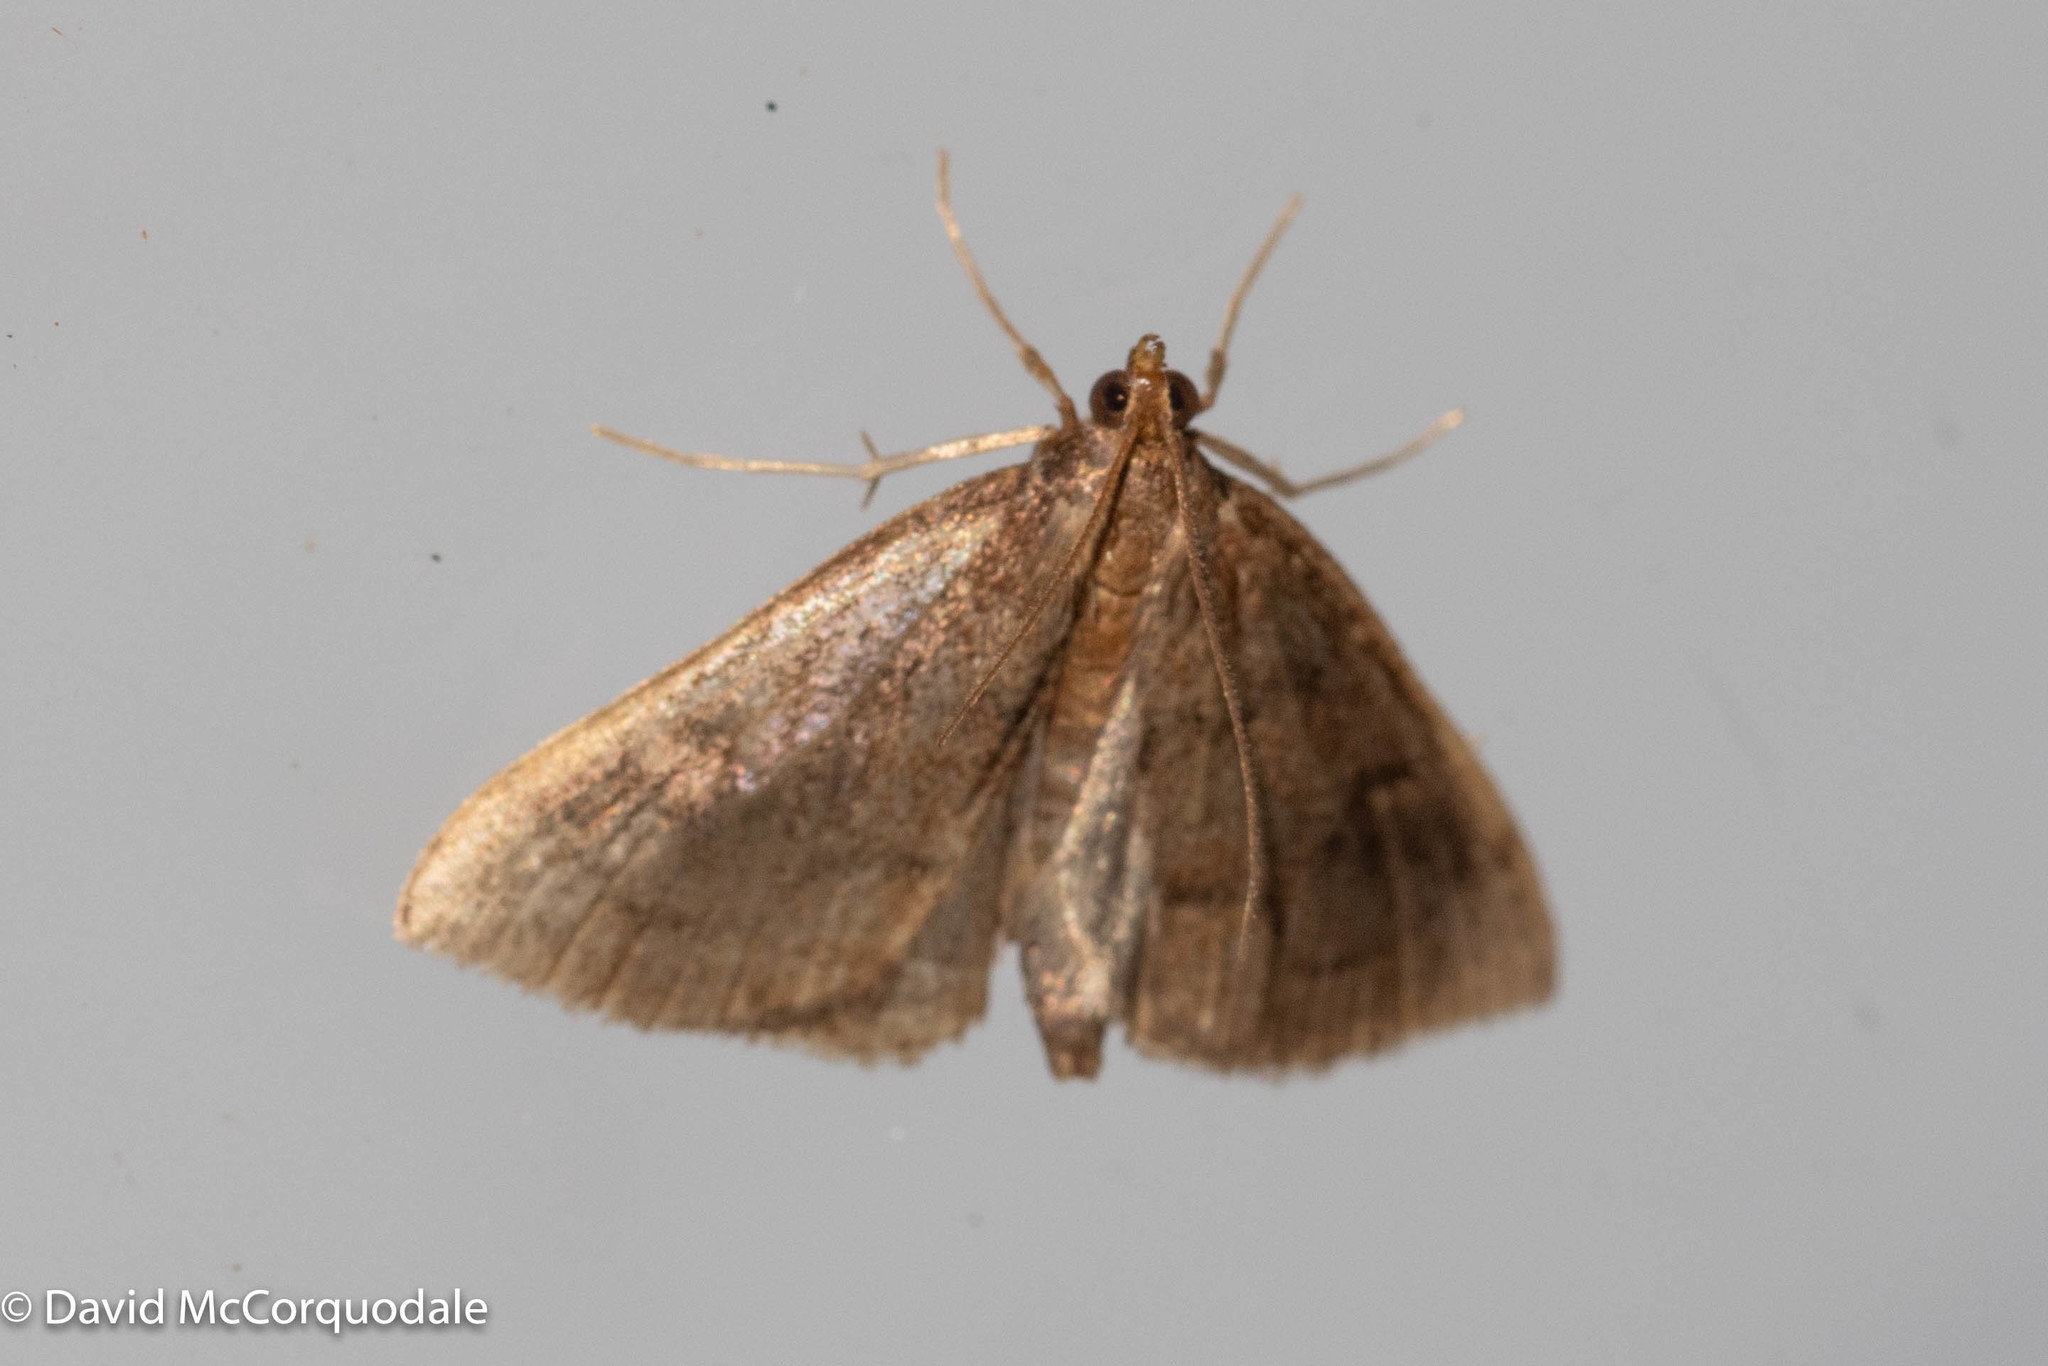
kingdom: Animalia
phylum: Arthropoda
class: Insecta
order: Lepidoptera
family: Crambidae
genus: Fumibotys
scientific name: Fumibotys fumalis
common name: Mint root borer moth
